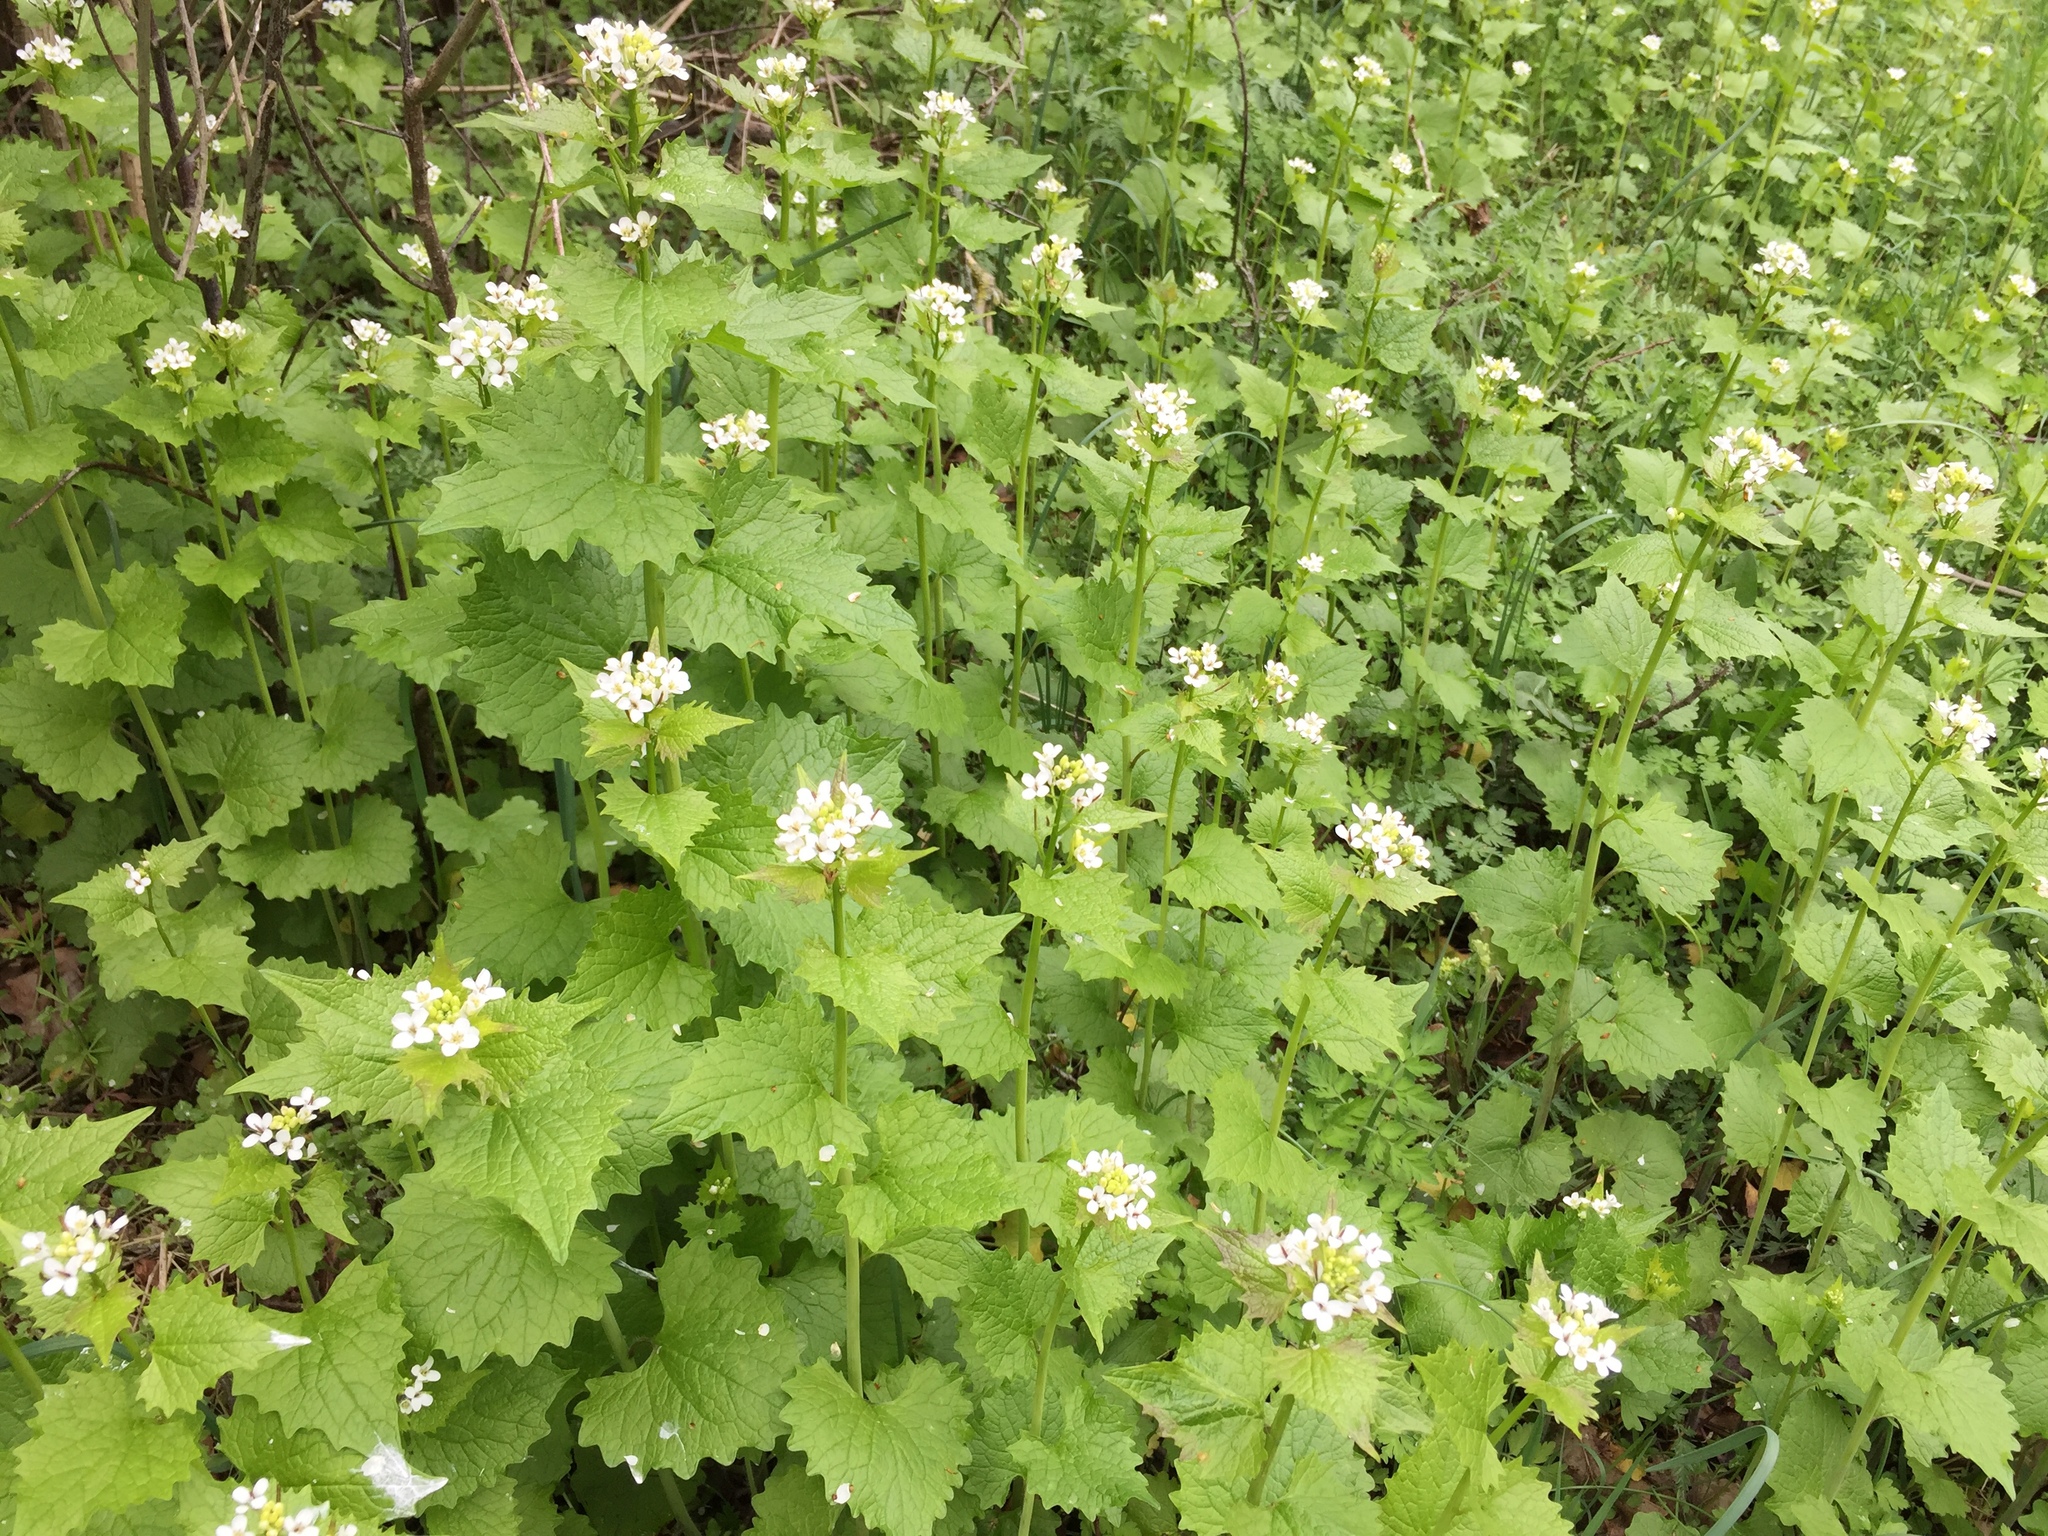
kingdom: Plantae
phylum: Tracheophyta
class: Magnoliopsida
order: Brassicales
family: Brassicaceae
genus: Alliaria
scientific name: Alliaria petiolata
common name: Garlic mustard
